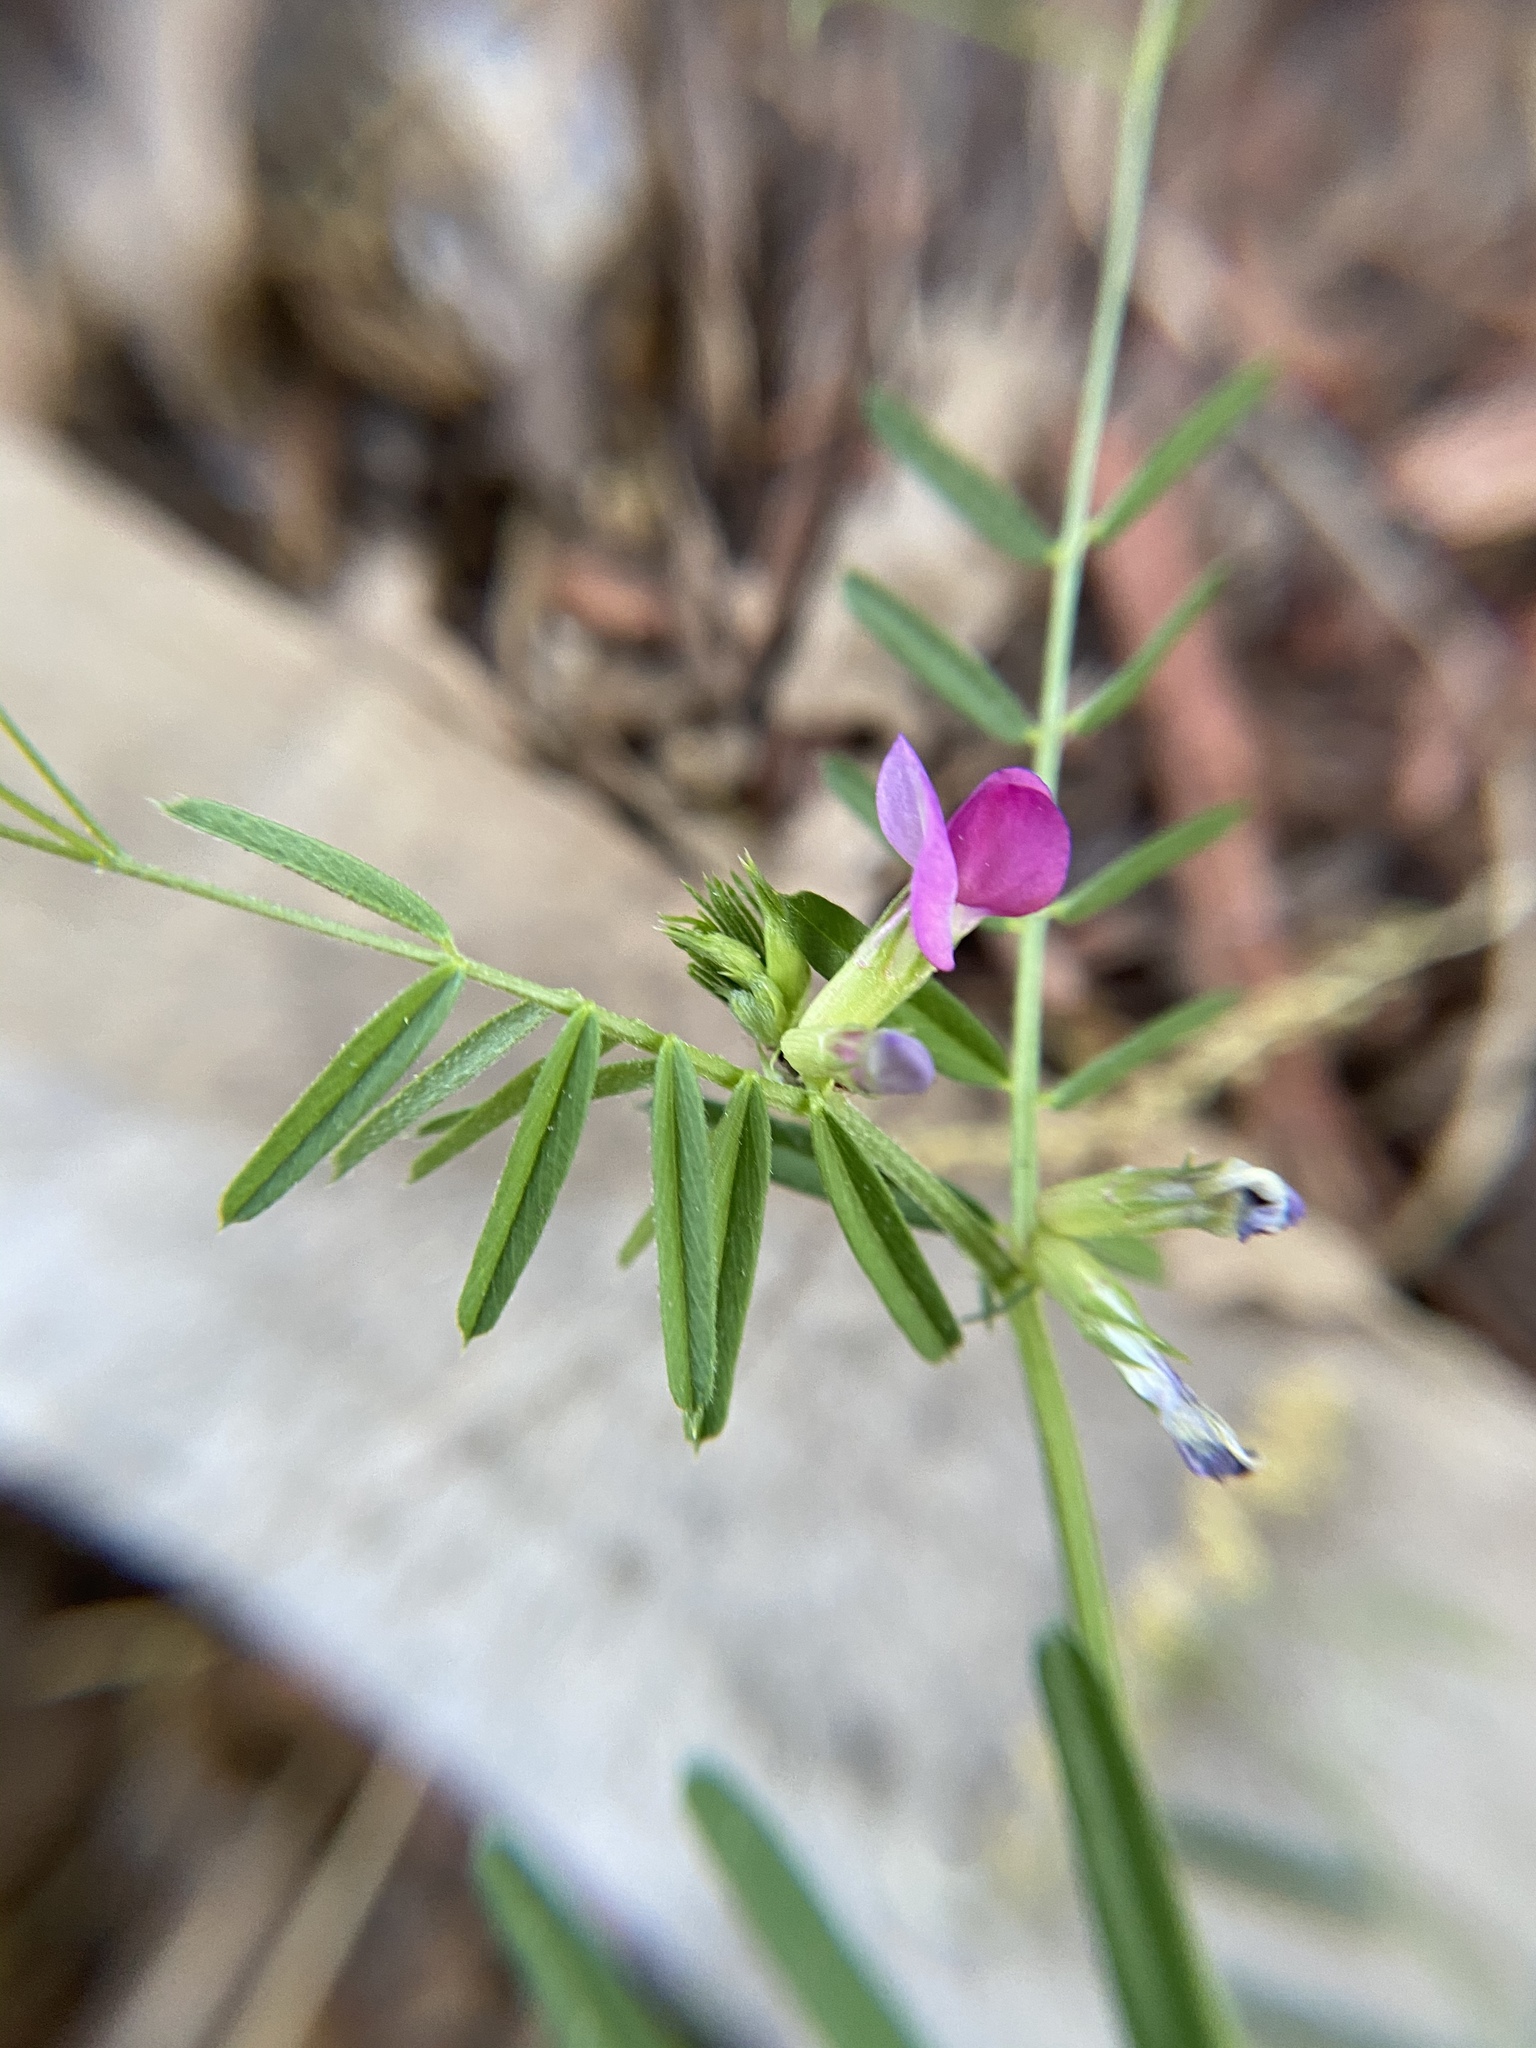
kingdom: Plantae
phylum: Tracheophyta
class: Magnoliopsida
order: Fabales
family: Fabaceae
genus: Vicia
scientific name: Vicia sativa
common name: Garden vetch
